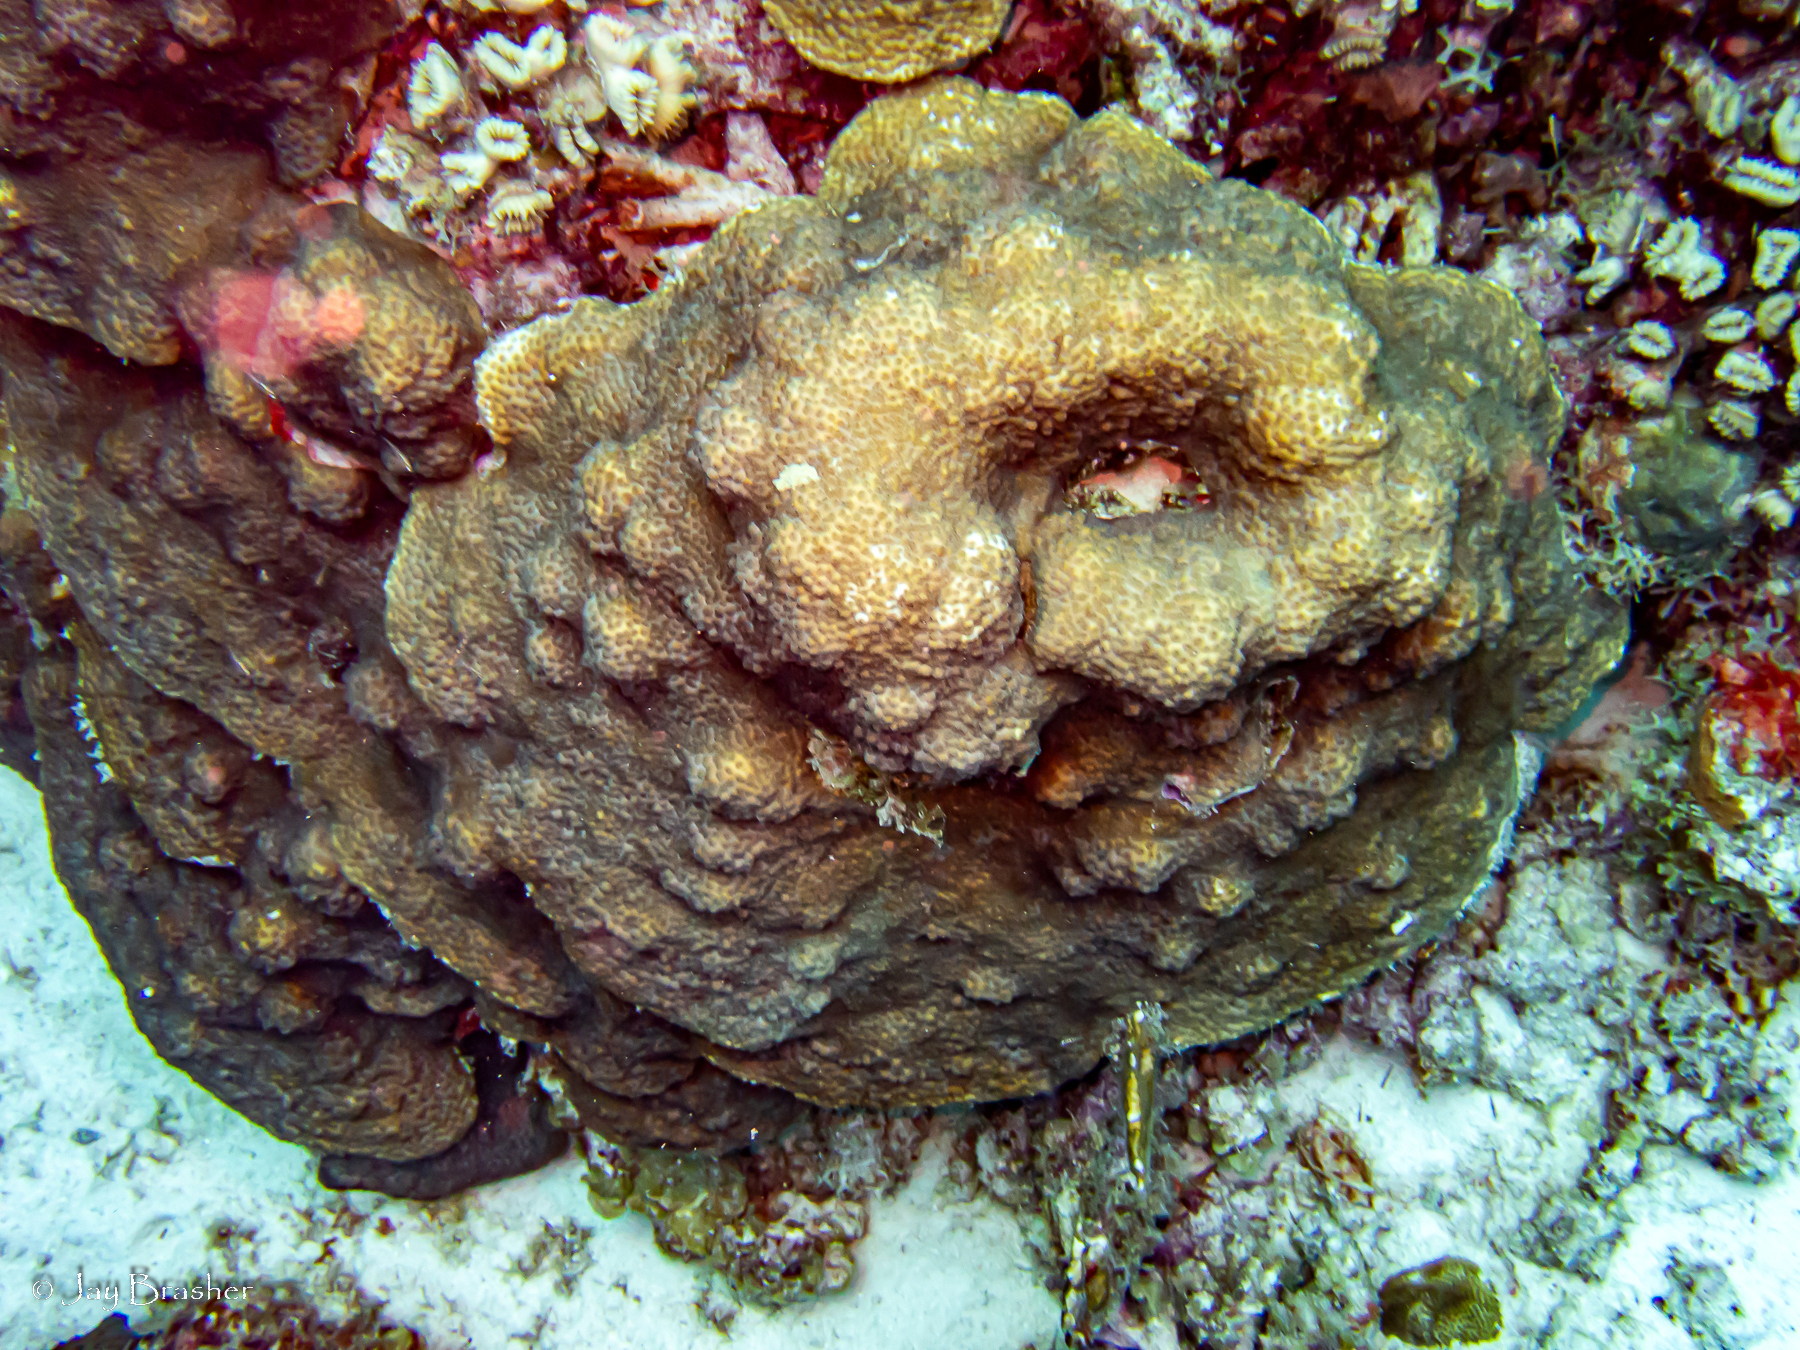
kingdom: Animalia
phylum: Cnidaria
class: Anthozoa
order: Scleractinia
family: Merulinidae
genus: Orbicella
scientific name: Orbicella faveolata
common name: Mountainous star coral
